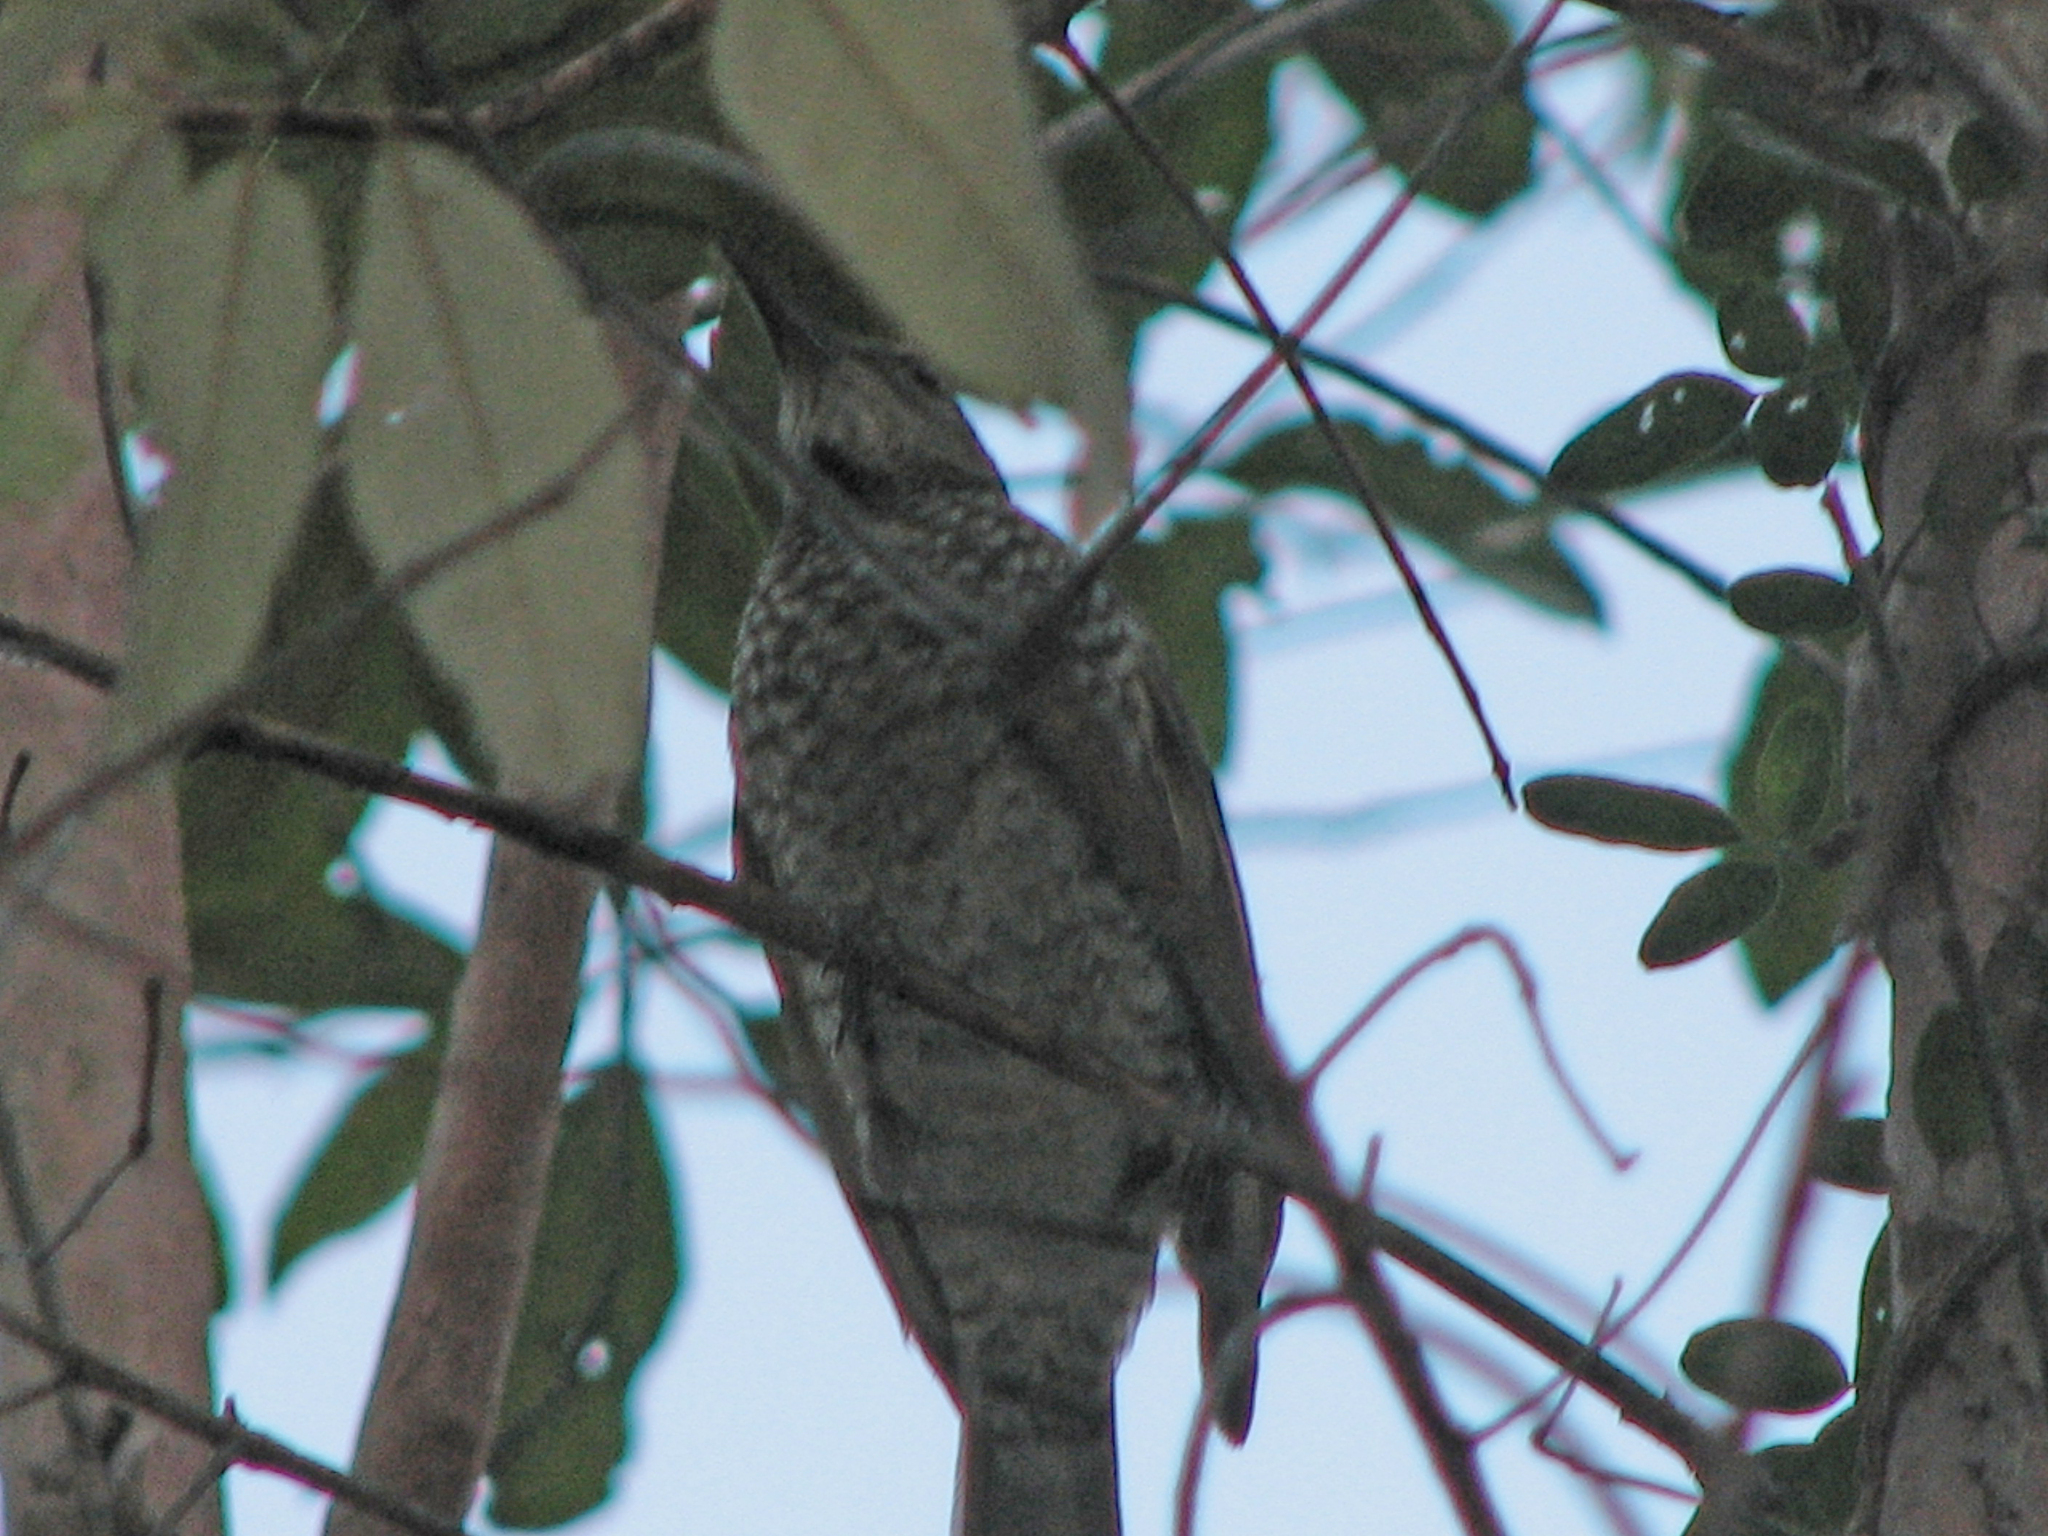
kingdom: Animalia
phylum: Chordata
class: Aves
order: Passeriformes
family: Ptilonorhynchidae
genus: Sericulus
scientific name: Sericulus chrysocephalus
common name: Regent bowerbird
